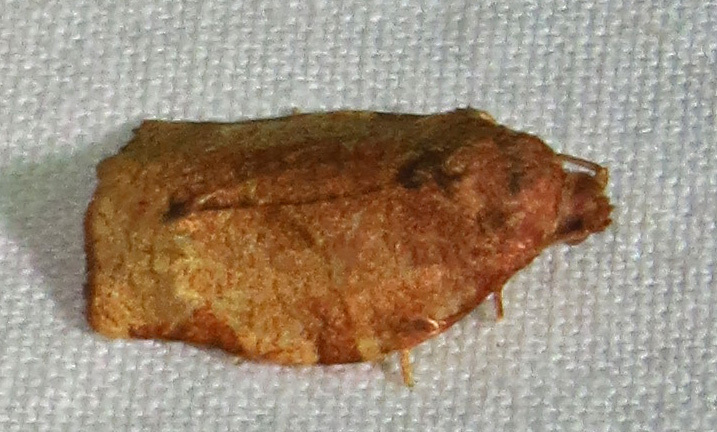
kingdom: Animalia
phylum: Arthropoda
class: Insecta
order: Lepidoptera
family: Tortricidae
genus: Choristoneura
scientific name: Choristoneura rosaceana
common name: Oblique-banded leafroller moth
